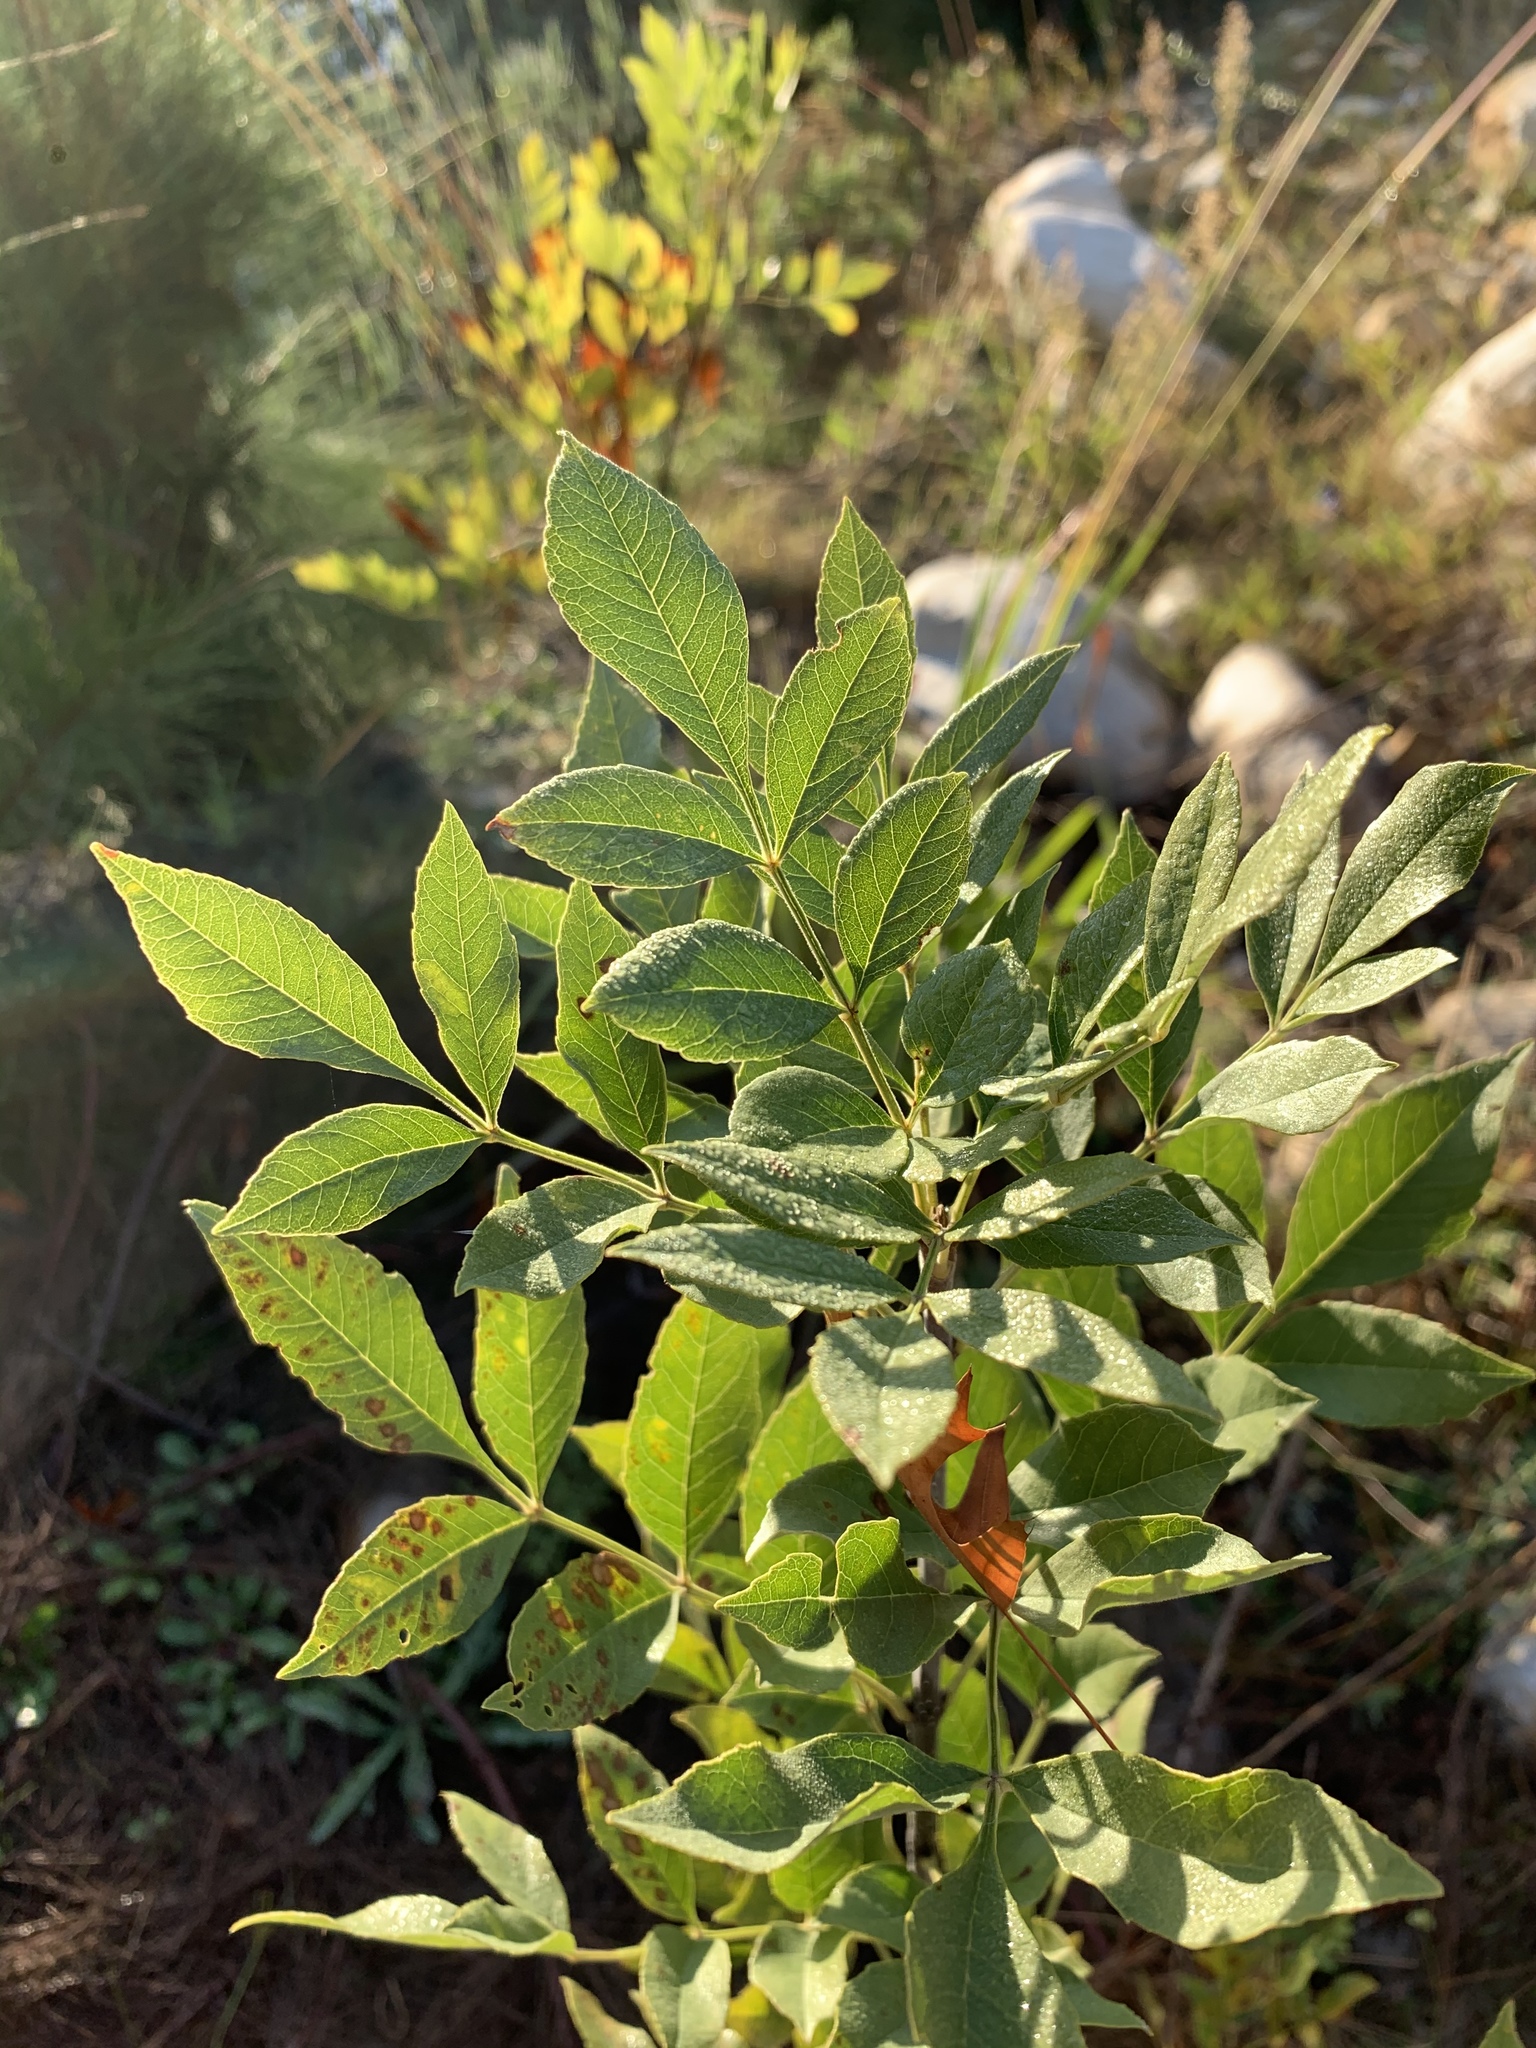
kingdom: Plantae
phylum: Tracheophyta
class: Magnoliopsida
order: Lamiales
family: Oleaceae
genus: Fraxinus
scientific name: Fraxinus pennsylvanica
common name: Green ash
